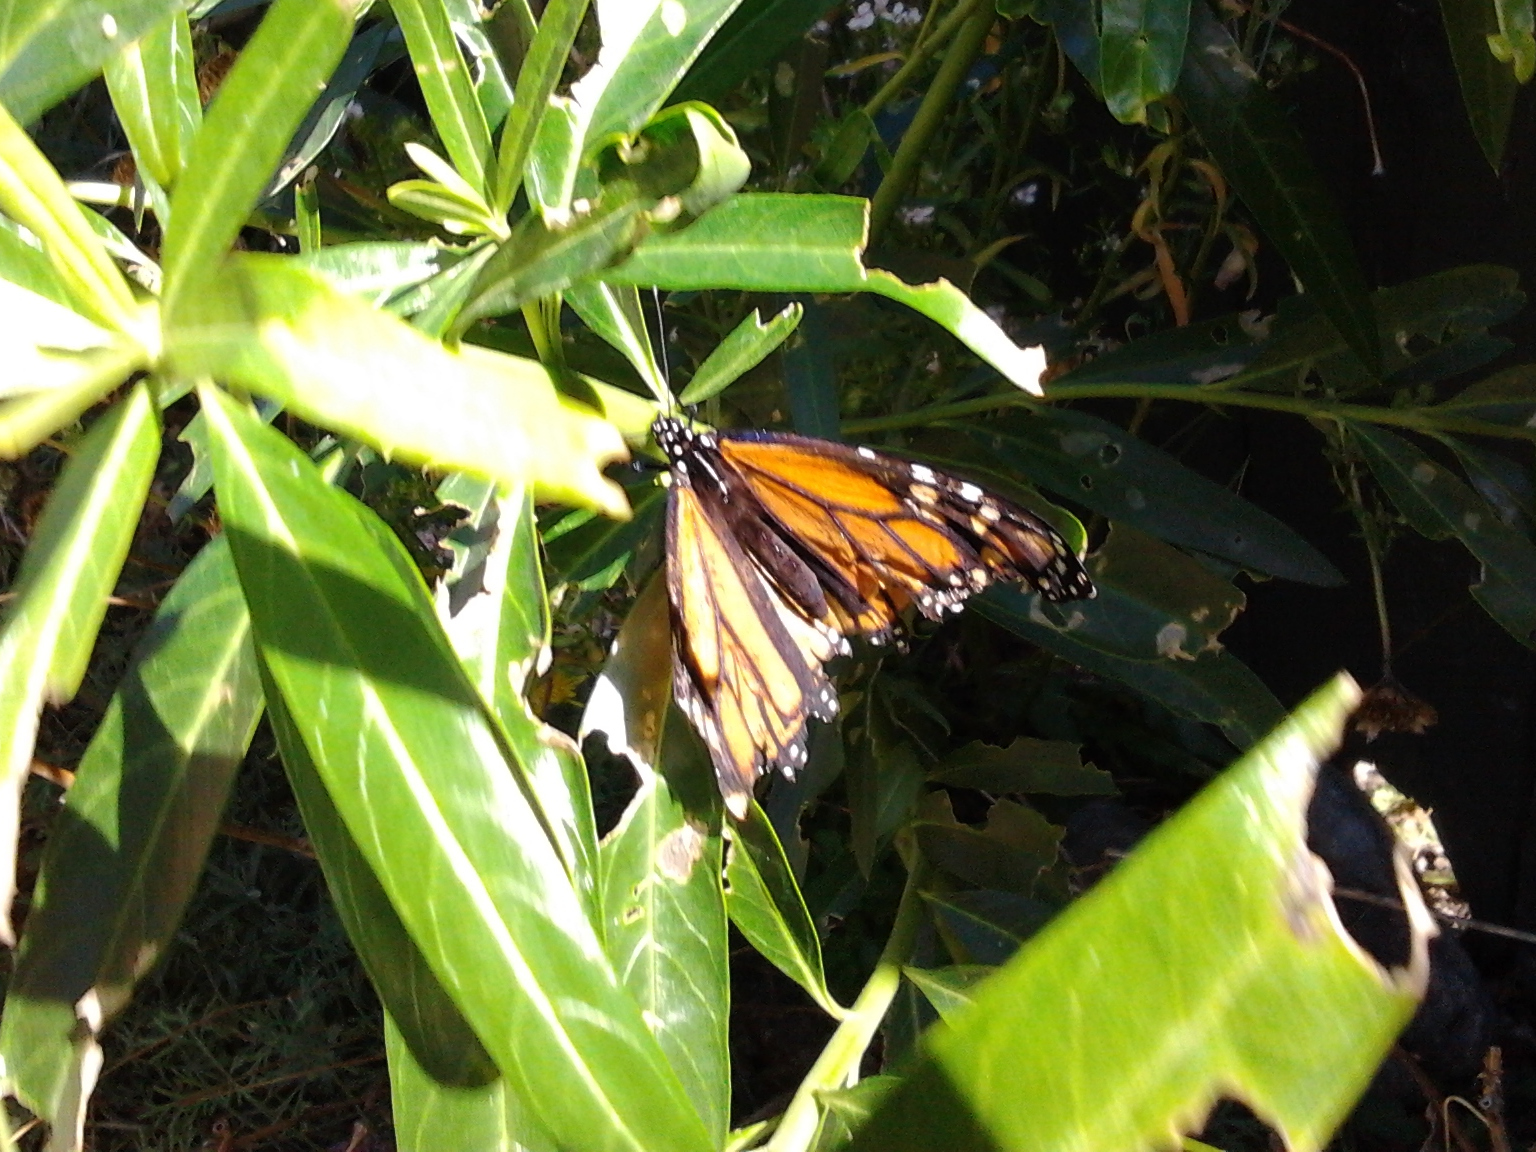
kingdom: Animalia
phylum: Arthropoda
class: Insecta
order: Lepidoptera
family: Nymphalidae
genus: Danaus
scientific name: Danaus plexippus
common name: Monarch
